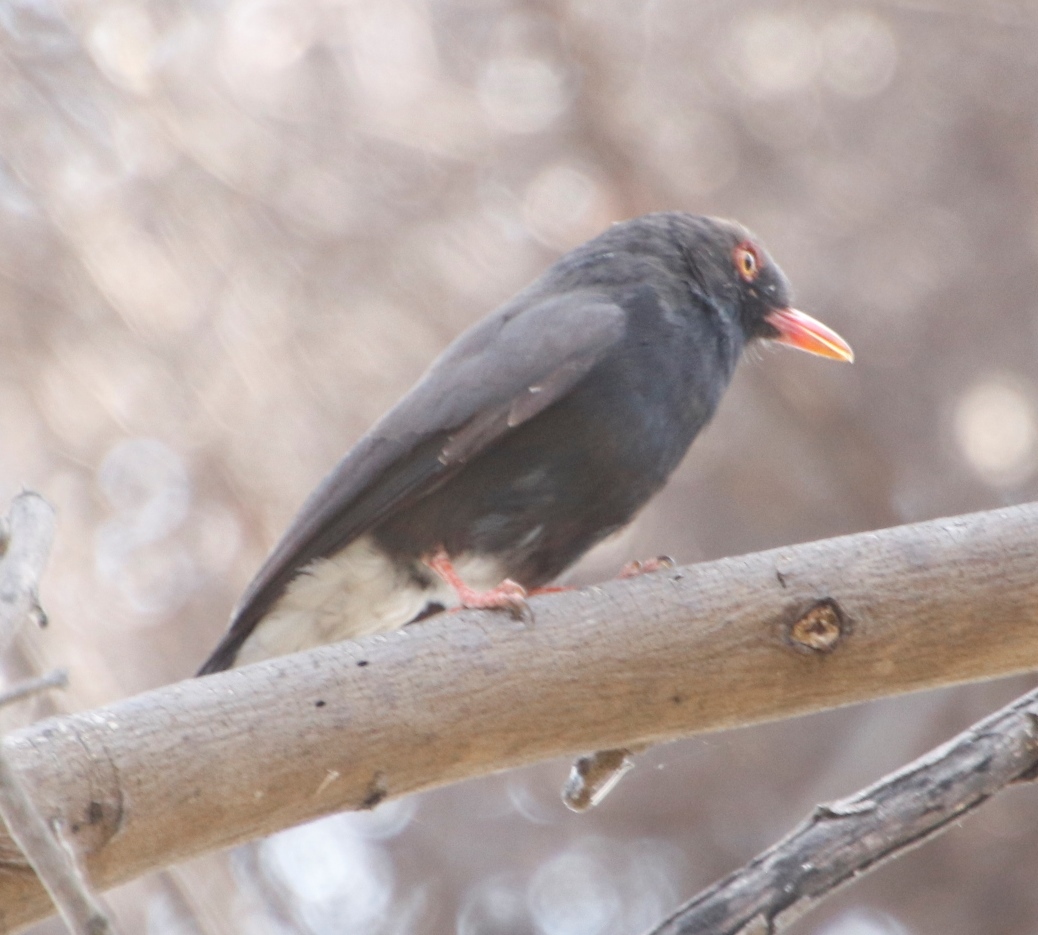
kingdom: Animalia
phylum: Chordata
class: Aves
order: Passeriformes
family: Prionopidae
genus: Prionops
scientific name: Prionops retzii
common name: Retz's helmetshrike
